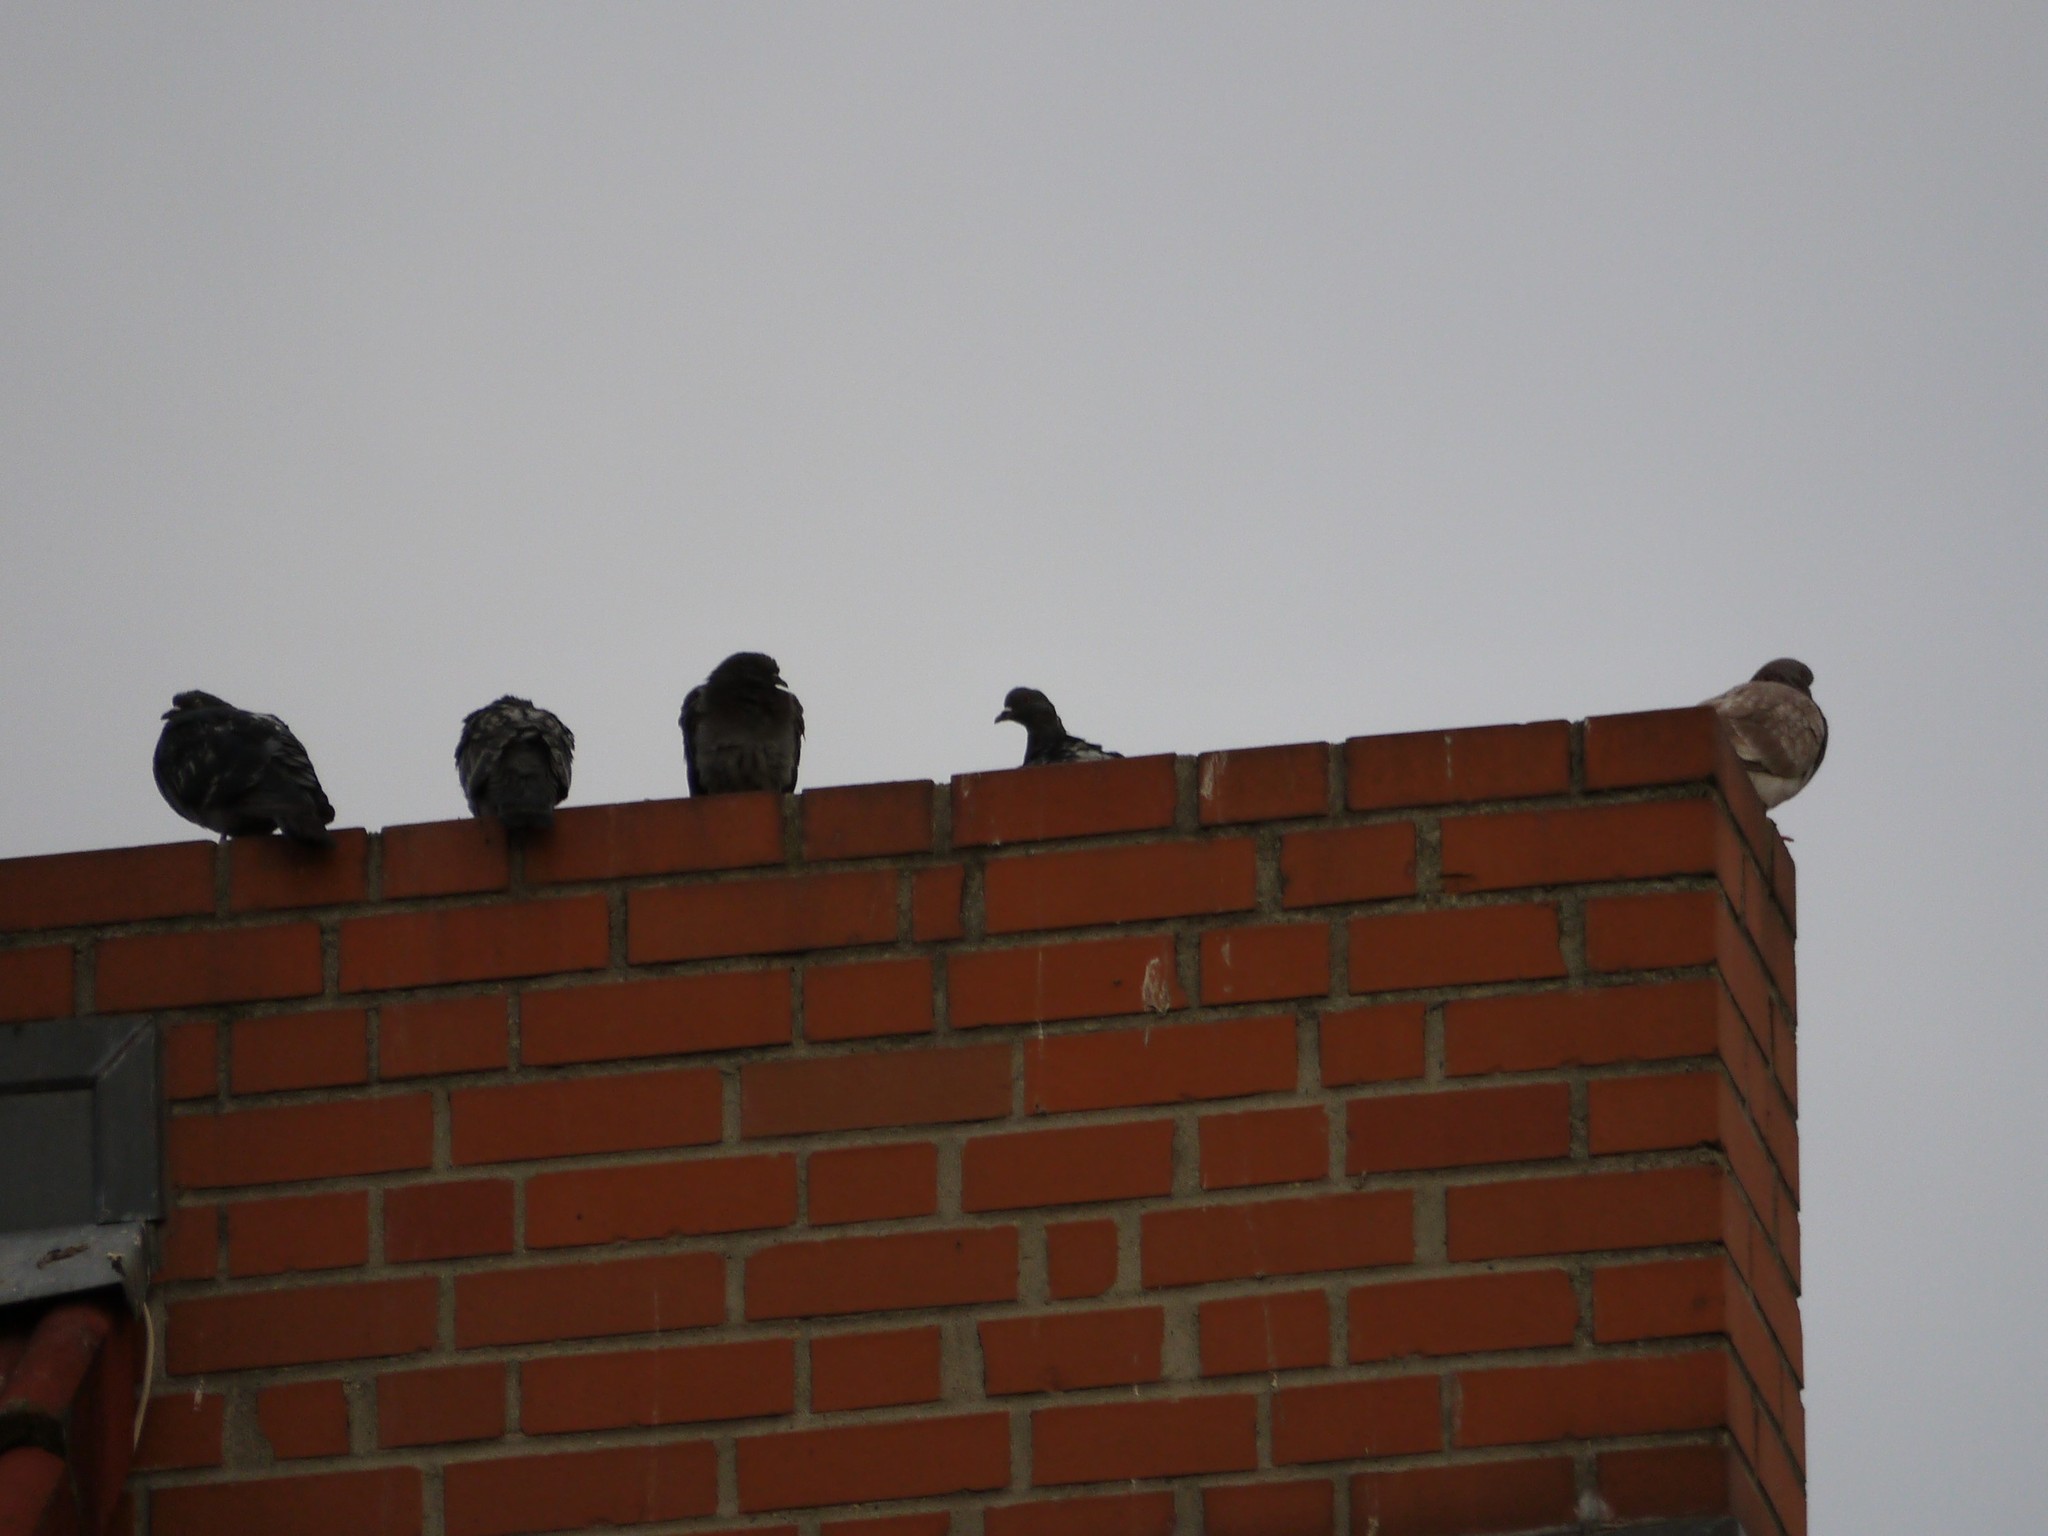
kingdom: Animalia
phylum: Chordata
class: Aves
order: Columbiformes
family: Columbidae
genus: Columba
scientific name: Columba livia
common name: Rock pigeon
